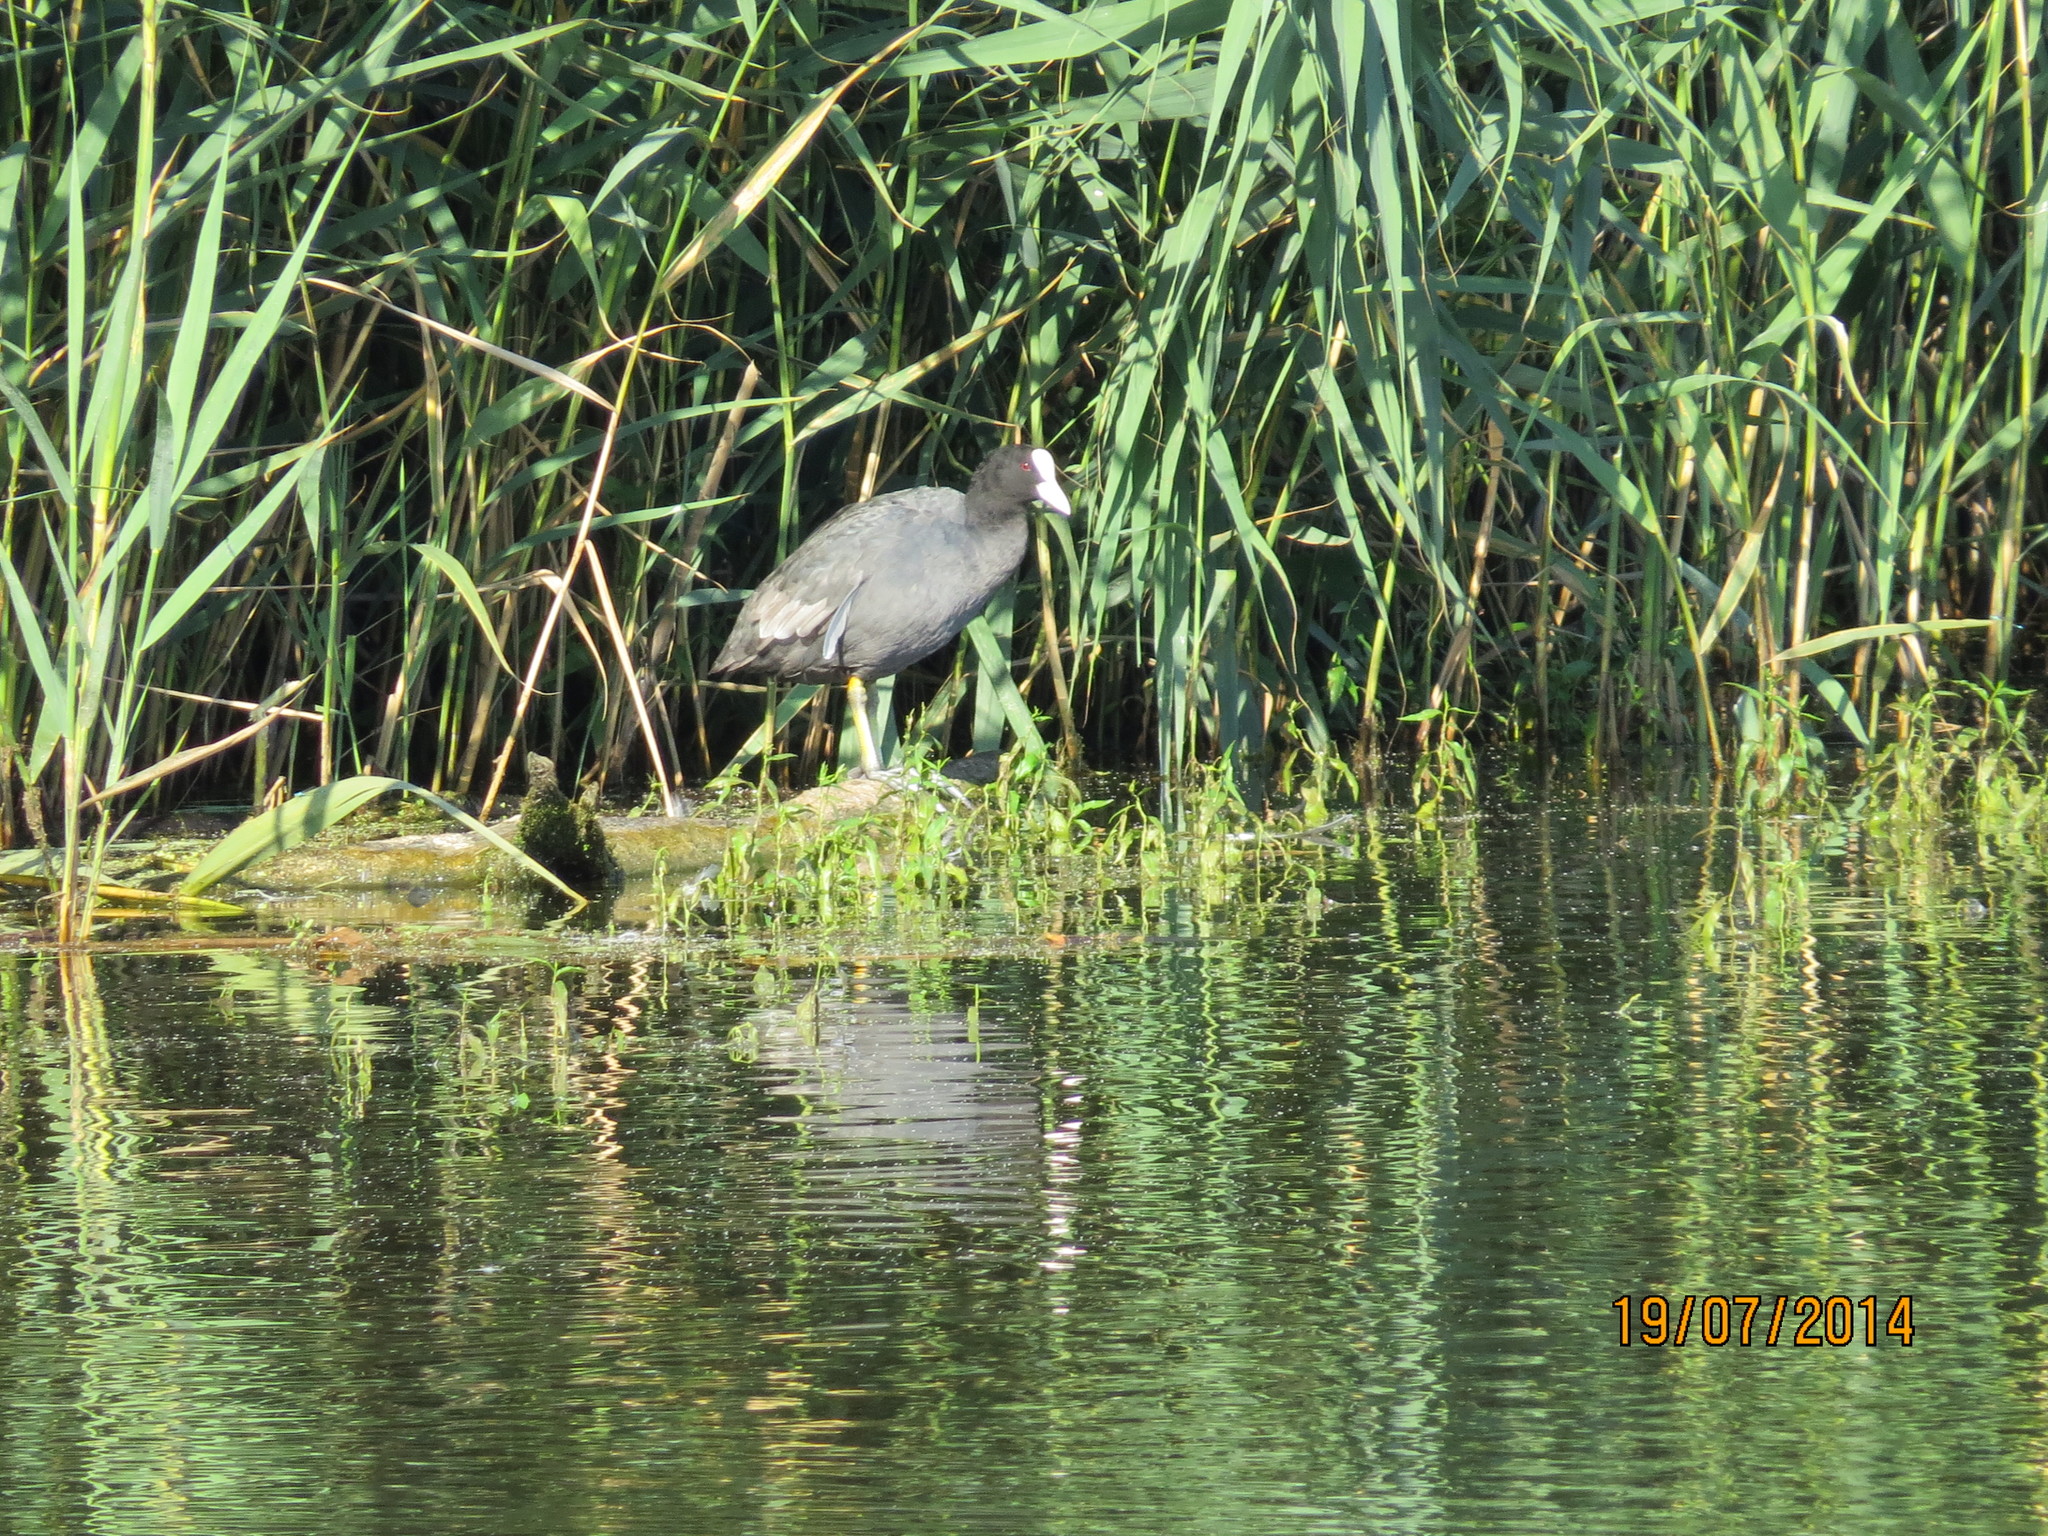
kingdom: Animalia
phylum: Chordata
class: Aves
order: Gruiformes
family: Rallidae
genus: Fulica
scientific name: Fulica atra
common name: Eurasian coot
